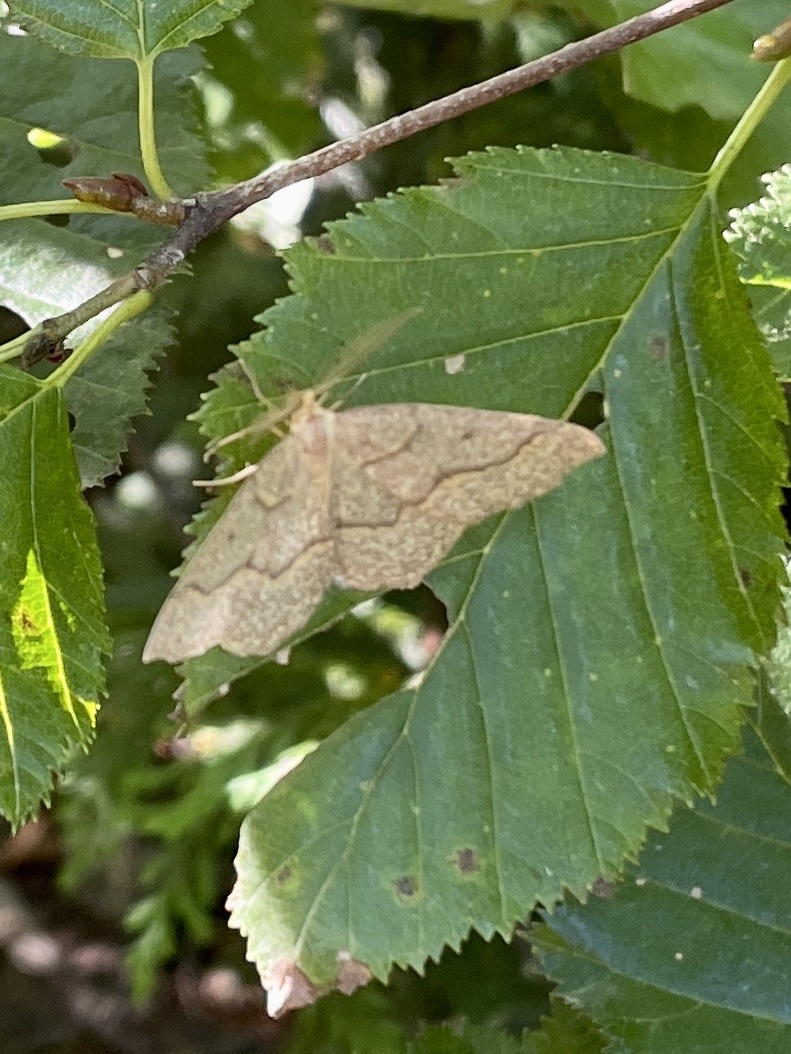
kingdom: Animalia
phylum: Arthropoda
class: Insecta
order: Lepidoptera
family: Geometridae
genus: Lambdina
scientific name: Lambdina fiscellaria
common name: Hemlock looper
